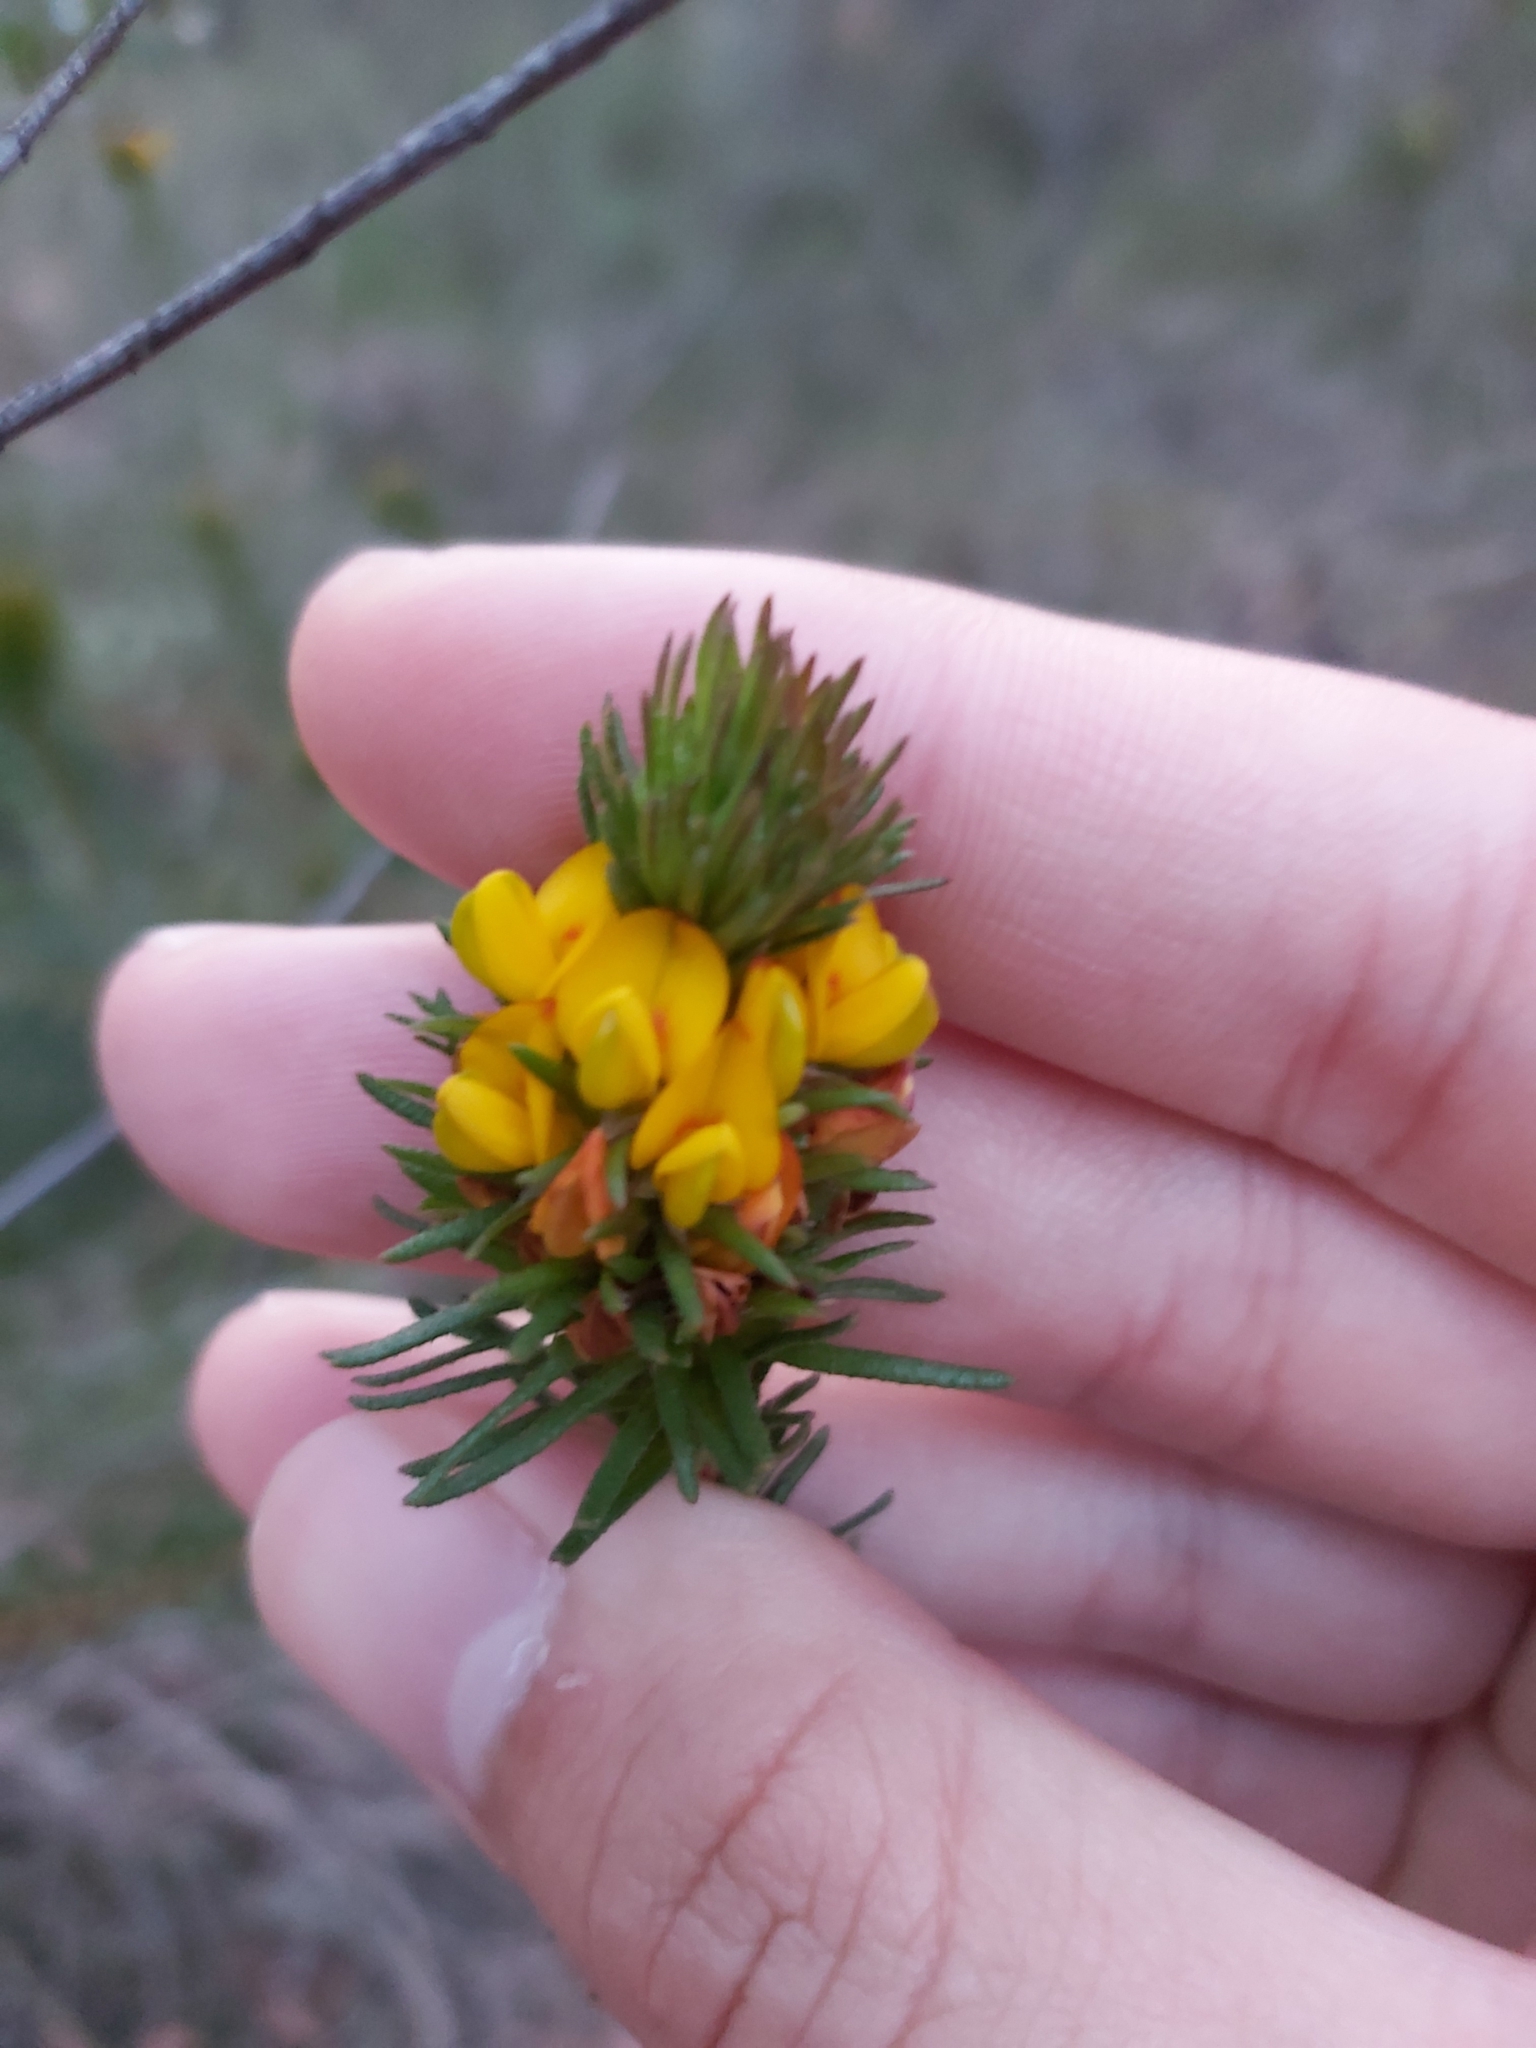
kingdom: Plantae
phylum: Tracheophyta
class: Magnoliopsida
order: Fabales
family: Fabaceae
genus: Phyllota
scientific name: Phyllota phylicoides
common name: Heath phyllota
